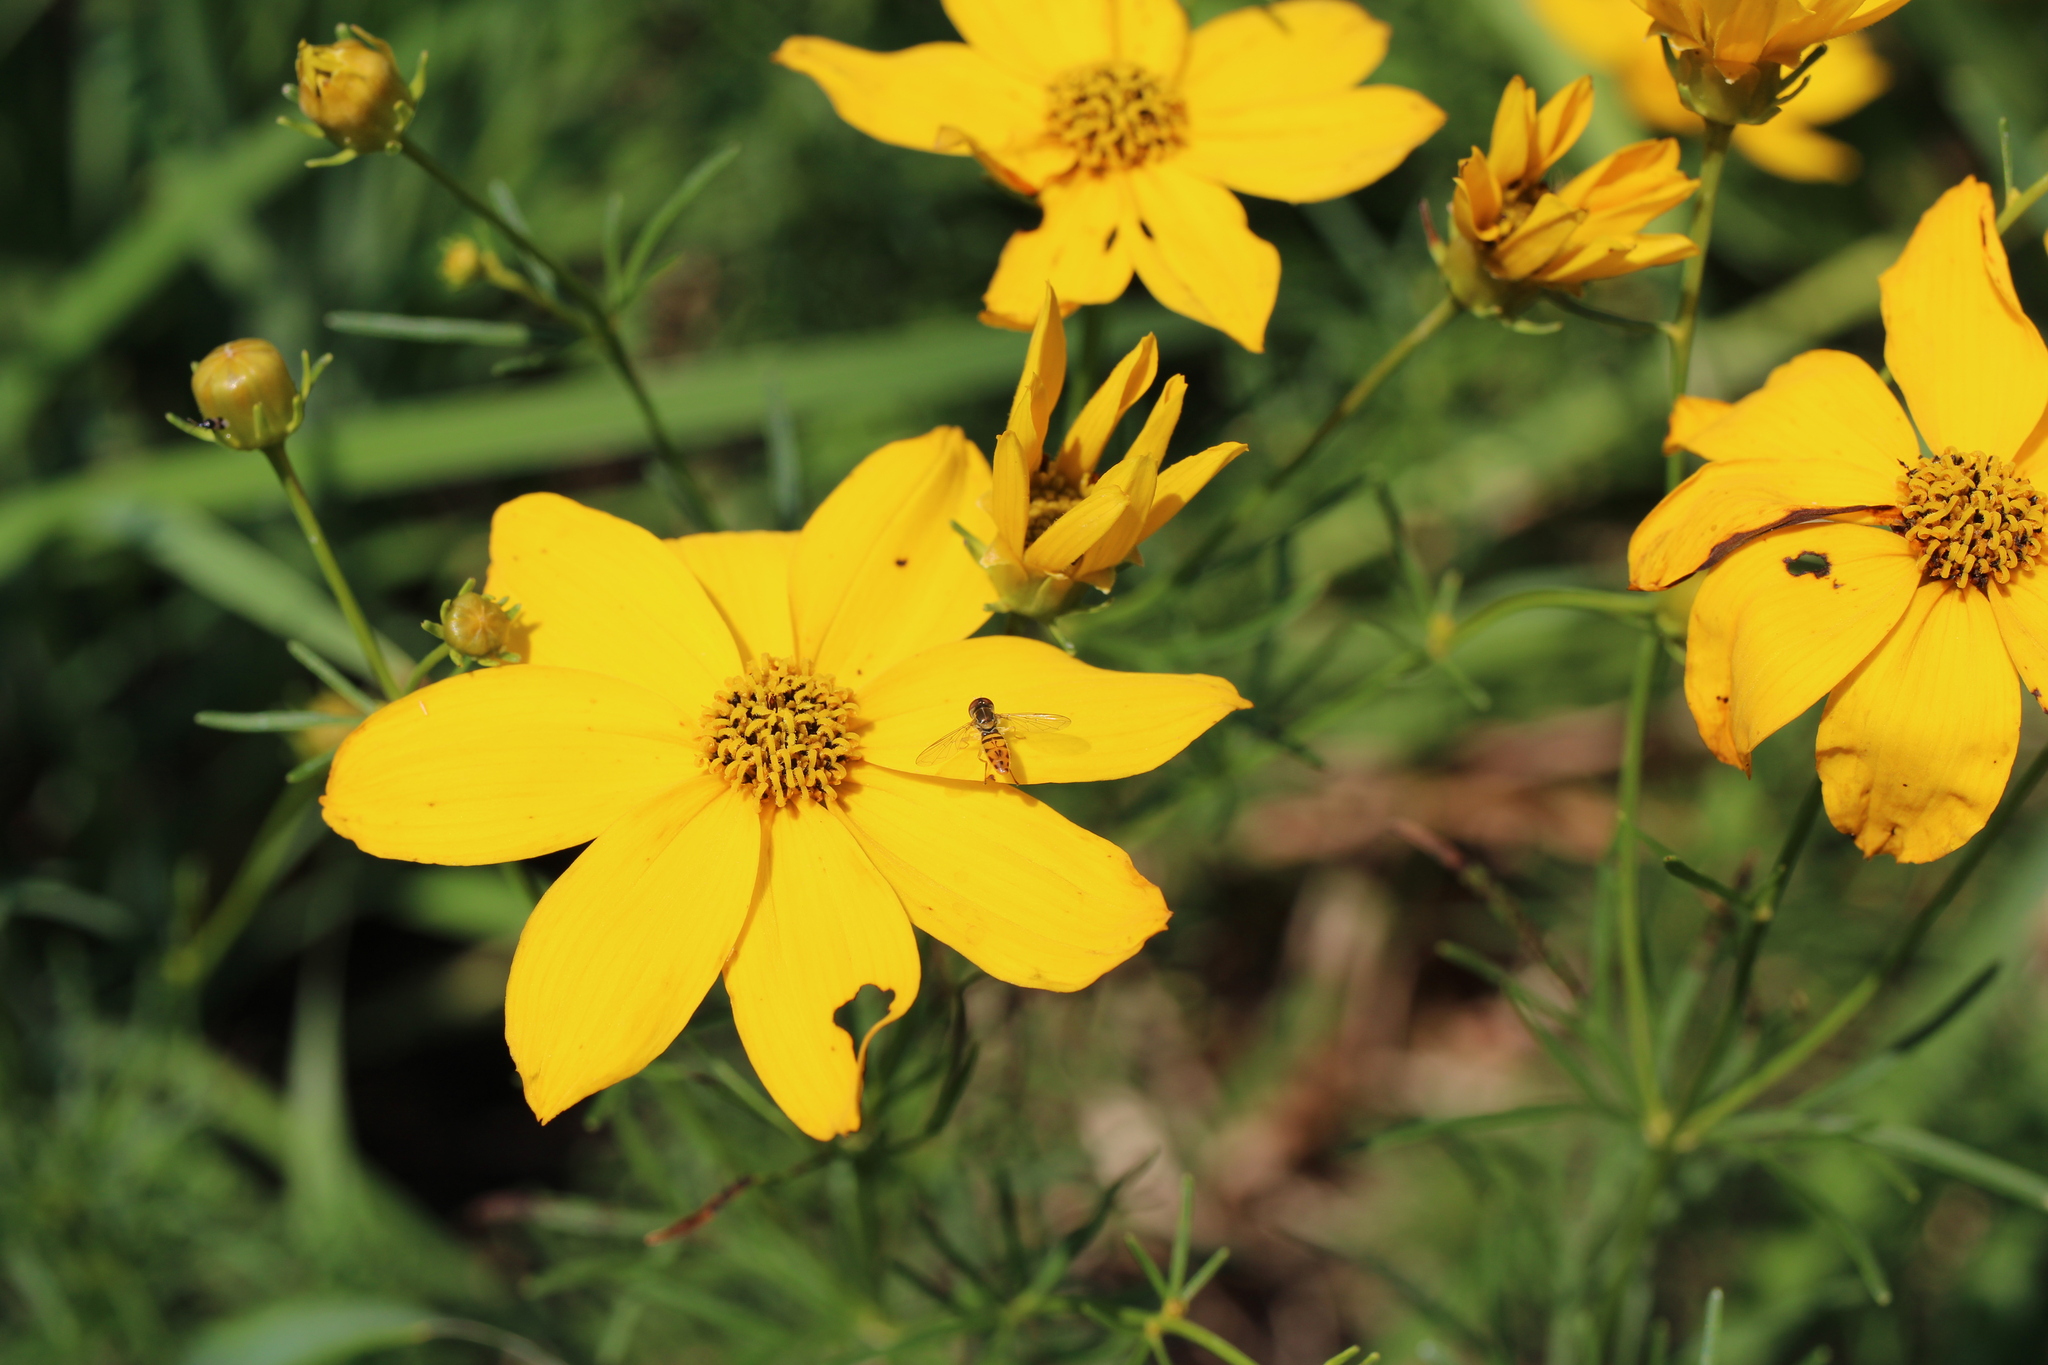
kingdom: Animalia
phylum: Arthropoda
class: Insecta
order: Diptera
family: Syrphidae
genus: Toxomerus
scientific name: Toxomerus marginatus
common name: Syrphid fly
